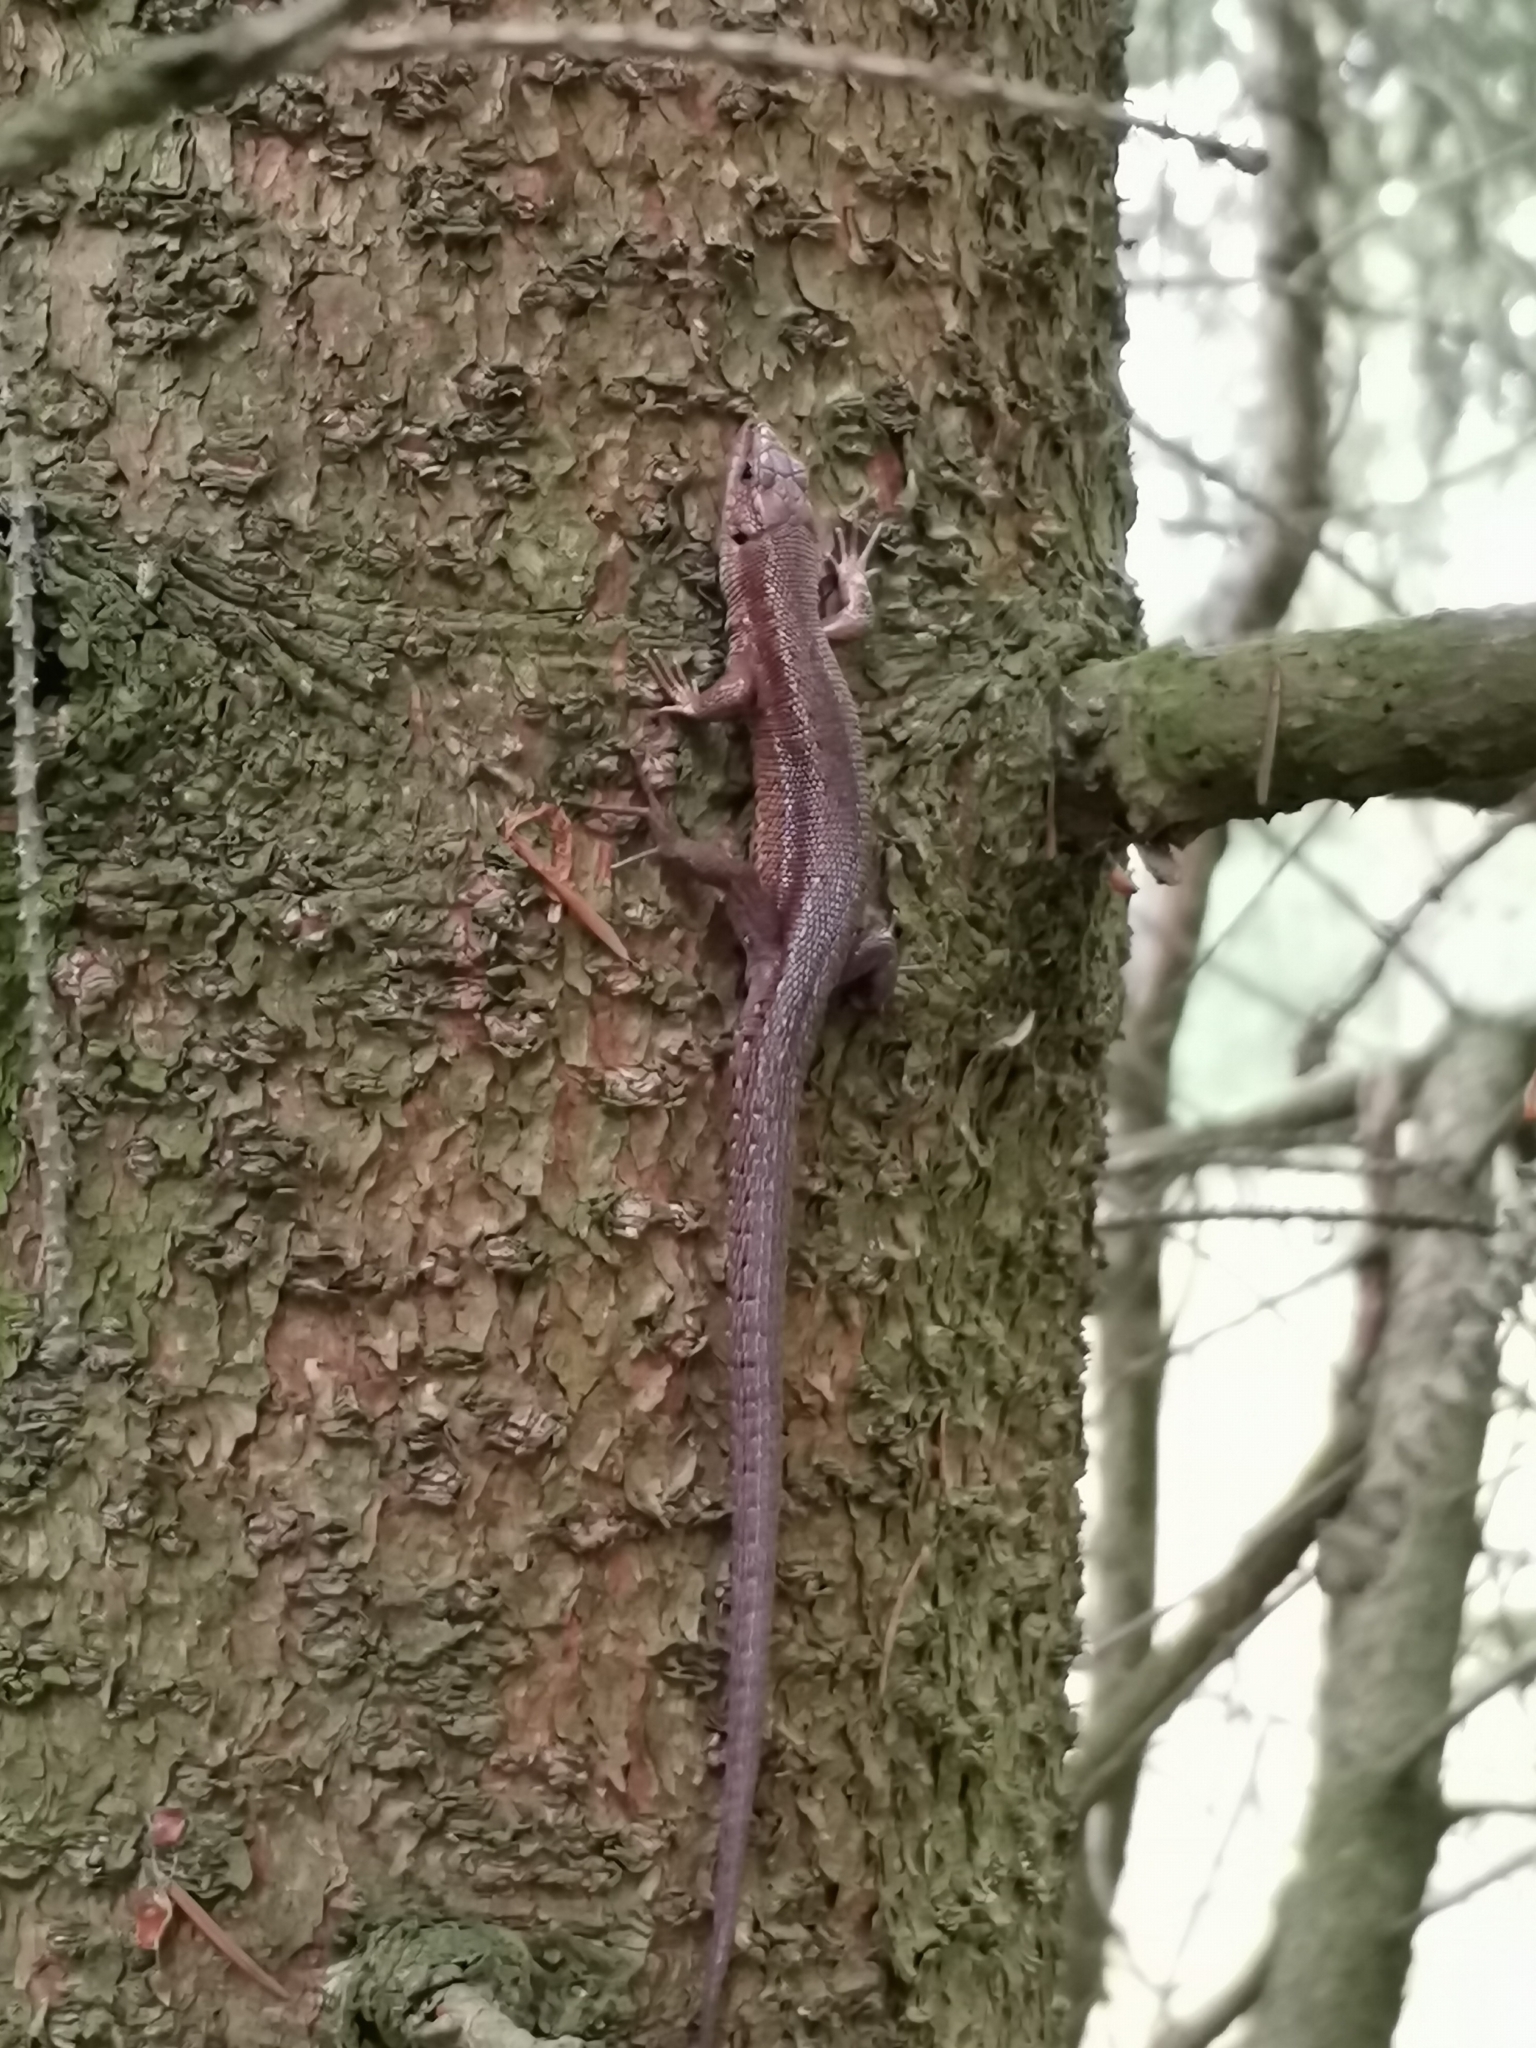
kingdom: Animalia
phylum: Chordata
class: Squamata
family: Lacertidae
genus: Zootoca
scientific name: Zootoca vivipara
